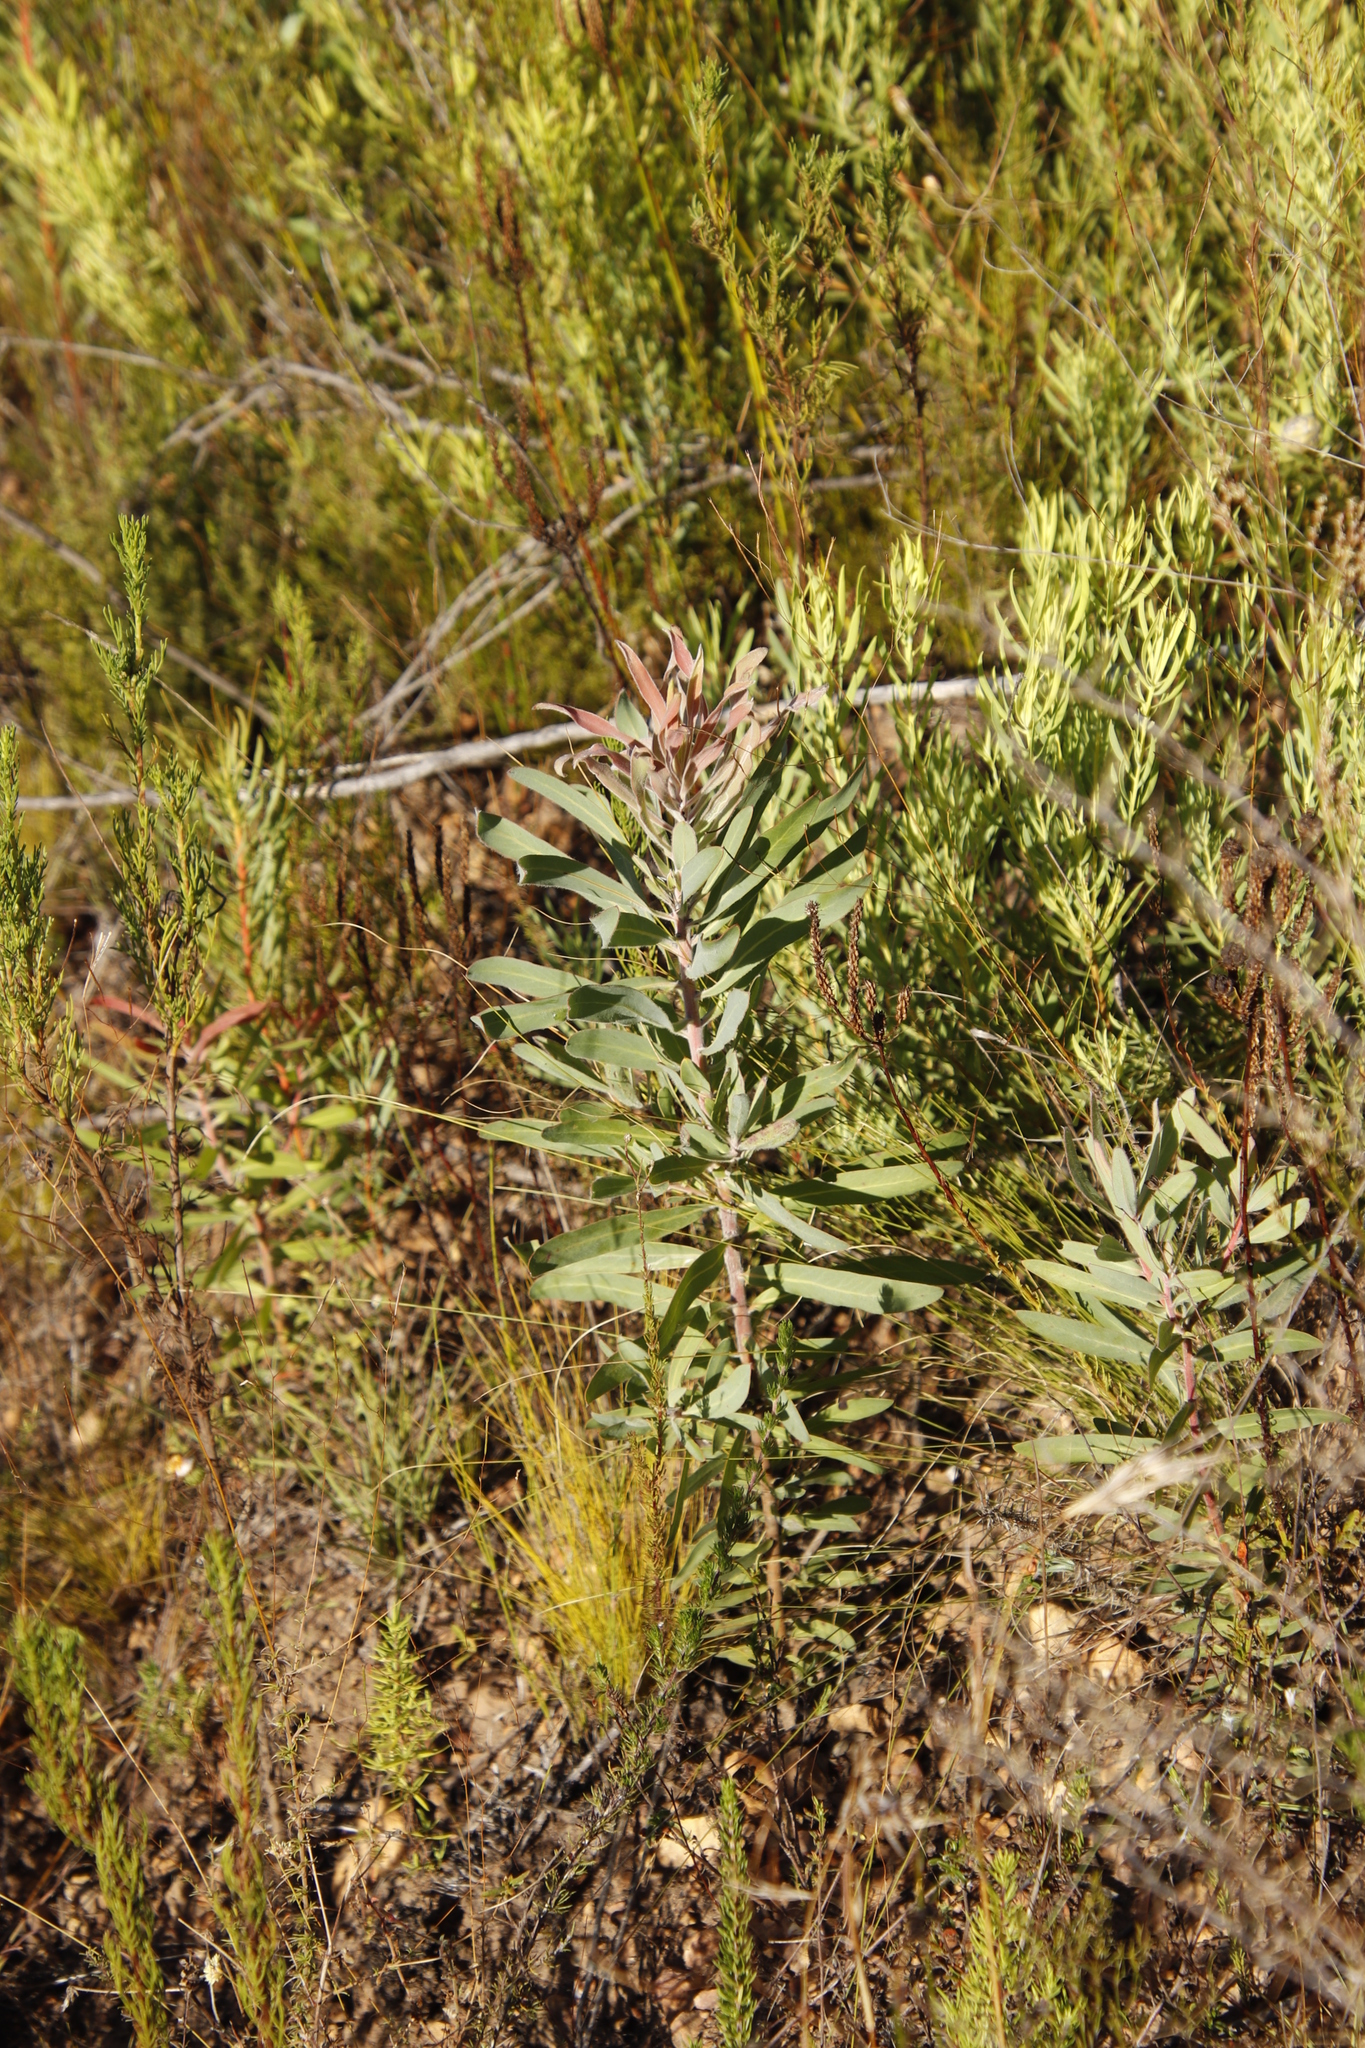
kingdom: Plantae
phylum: Tracheophyta
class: Magnoliopsida
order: Proteales
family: Proteaceae
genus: Protea
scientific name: Protea neriifolia
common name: Blue sugarbush
